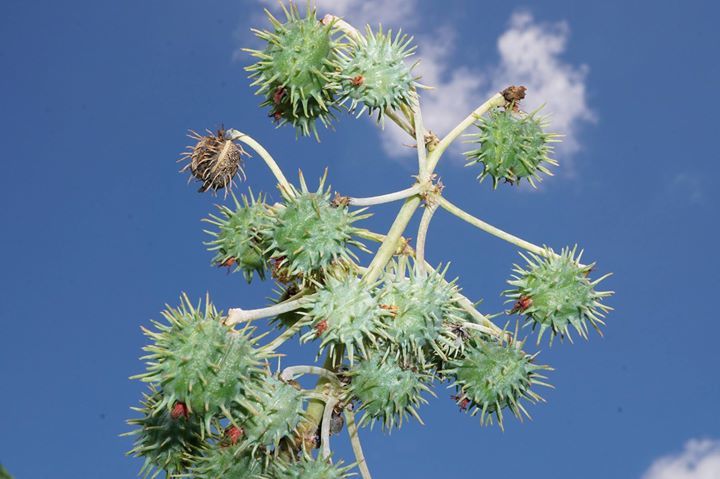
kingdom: Plantae
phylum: Tracheophyta
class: Magnoliopsida
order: Malpighiales
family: Euphorbiaceae
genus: Ricinus
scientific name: Ricinus communis
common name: Castor-oil-plant
